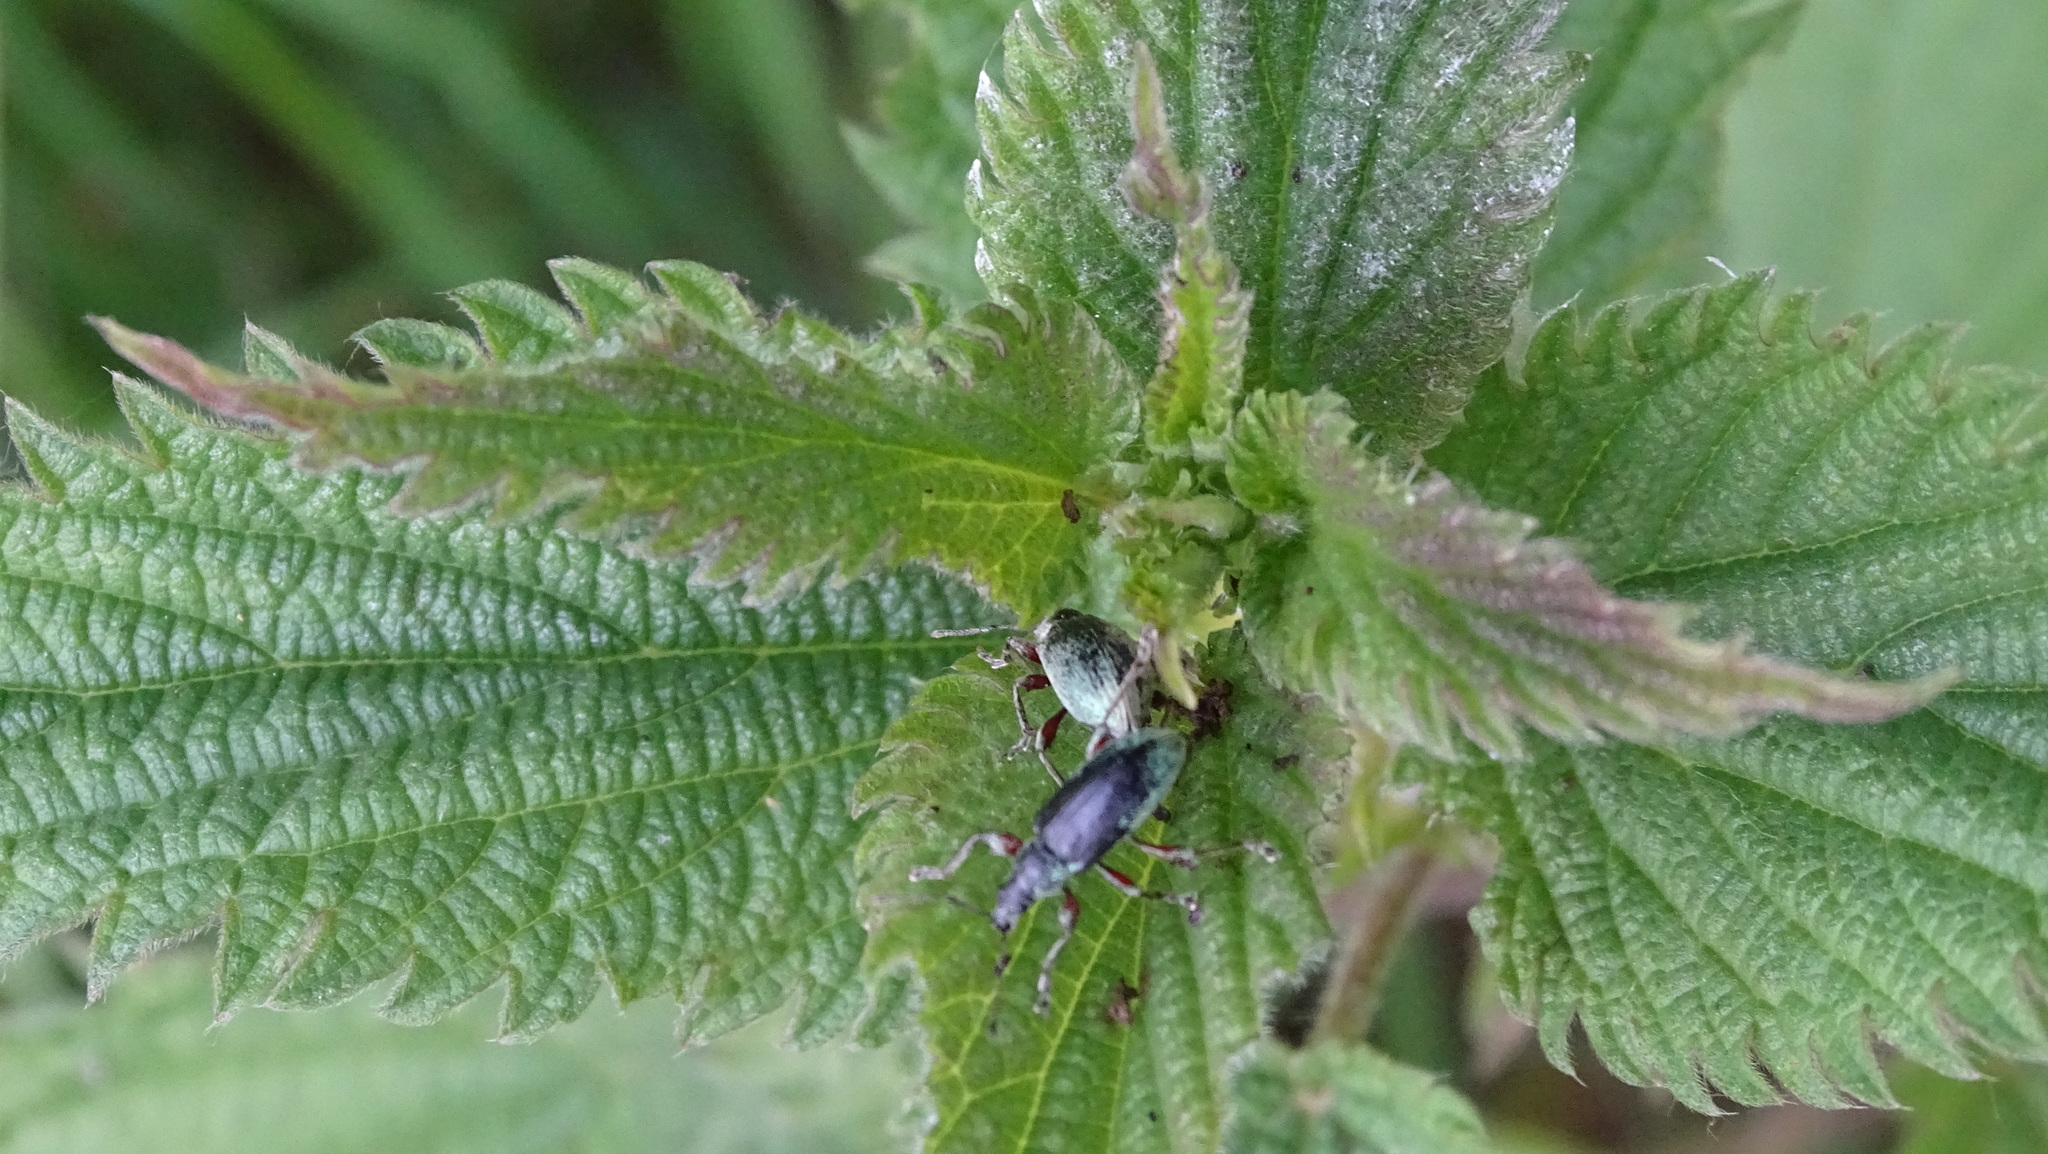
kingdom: Animalia
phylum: Arthropoda
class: Insecta
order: Coleoptera
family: Curculionidae
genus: Phyllobius
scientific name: Phyllobius pomaceus
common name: Green nettle weevil
